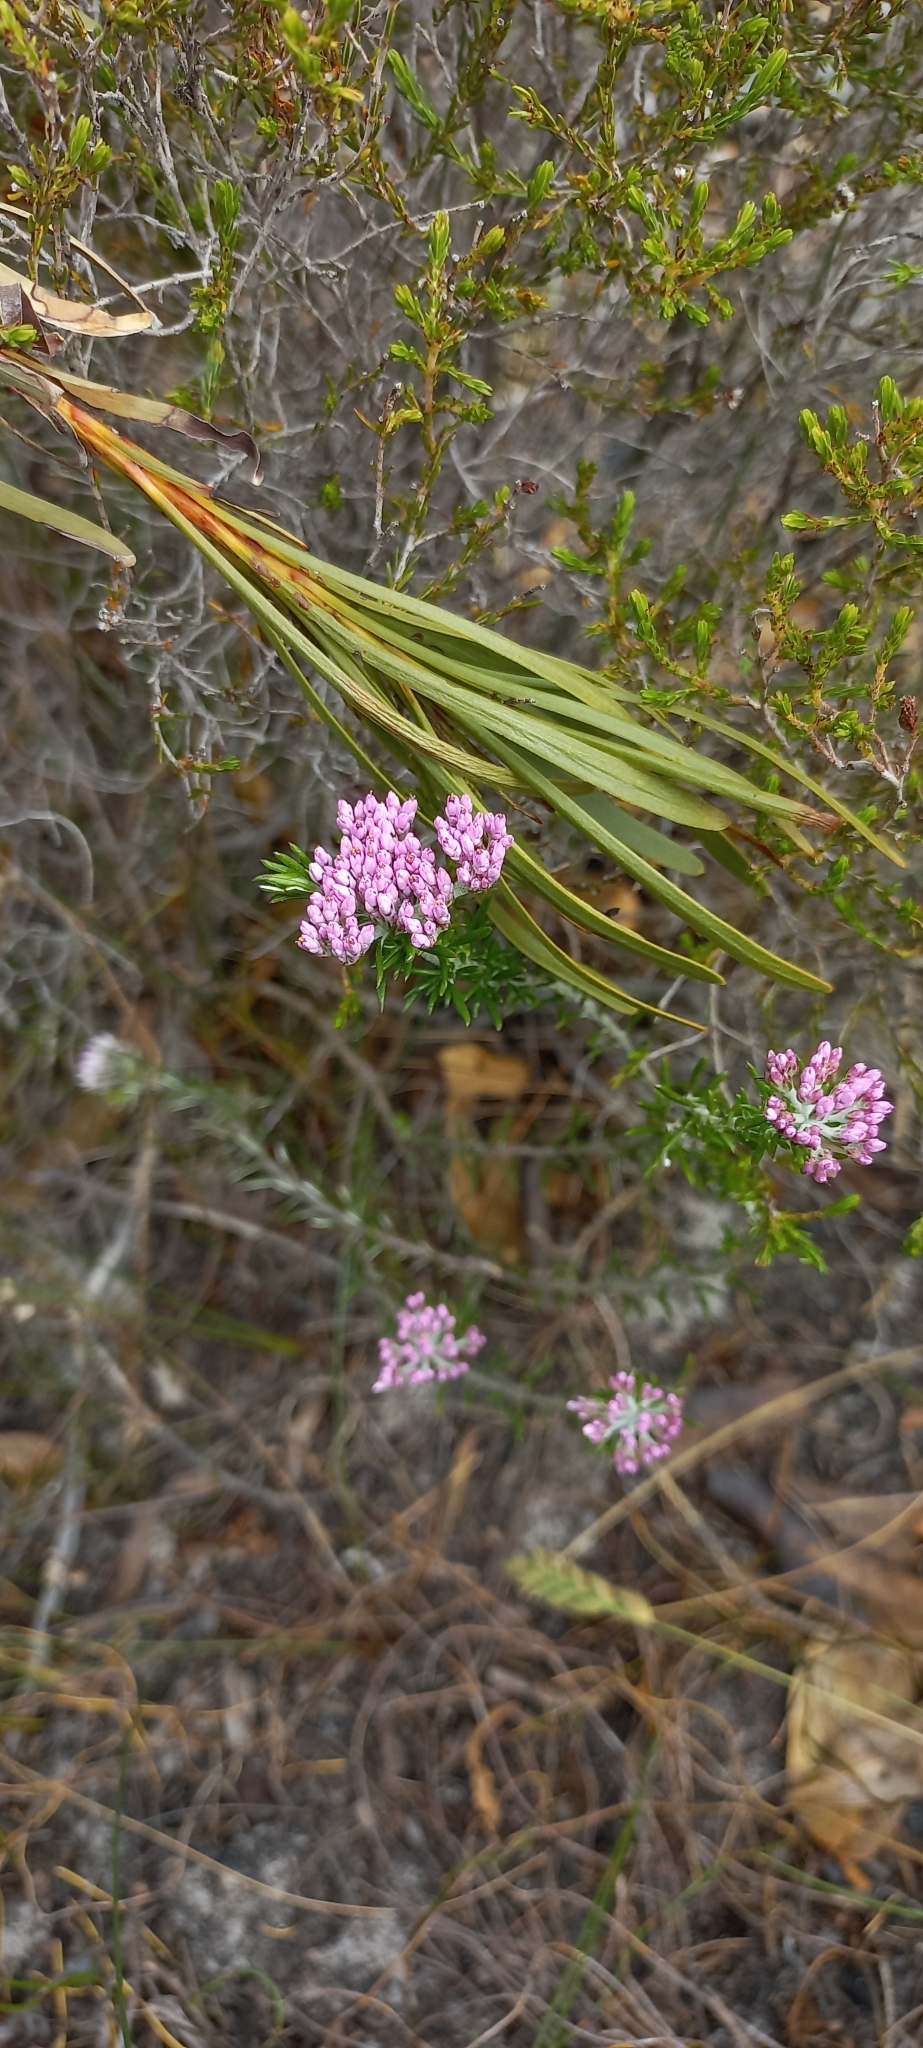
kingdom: Plantae
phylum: Tracheophyta
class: Magnoliopsida
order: Asterales
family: Asteraceae
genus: Metalasia
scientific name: Metalasia erubescens
